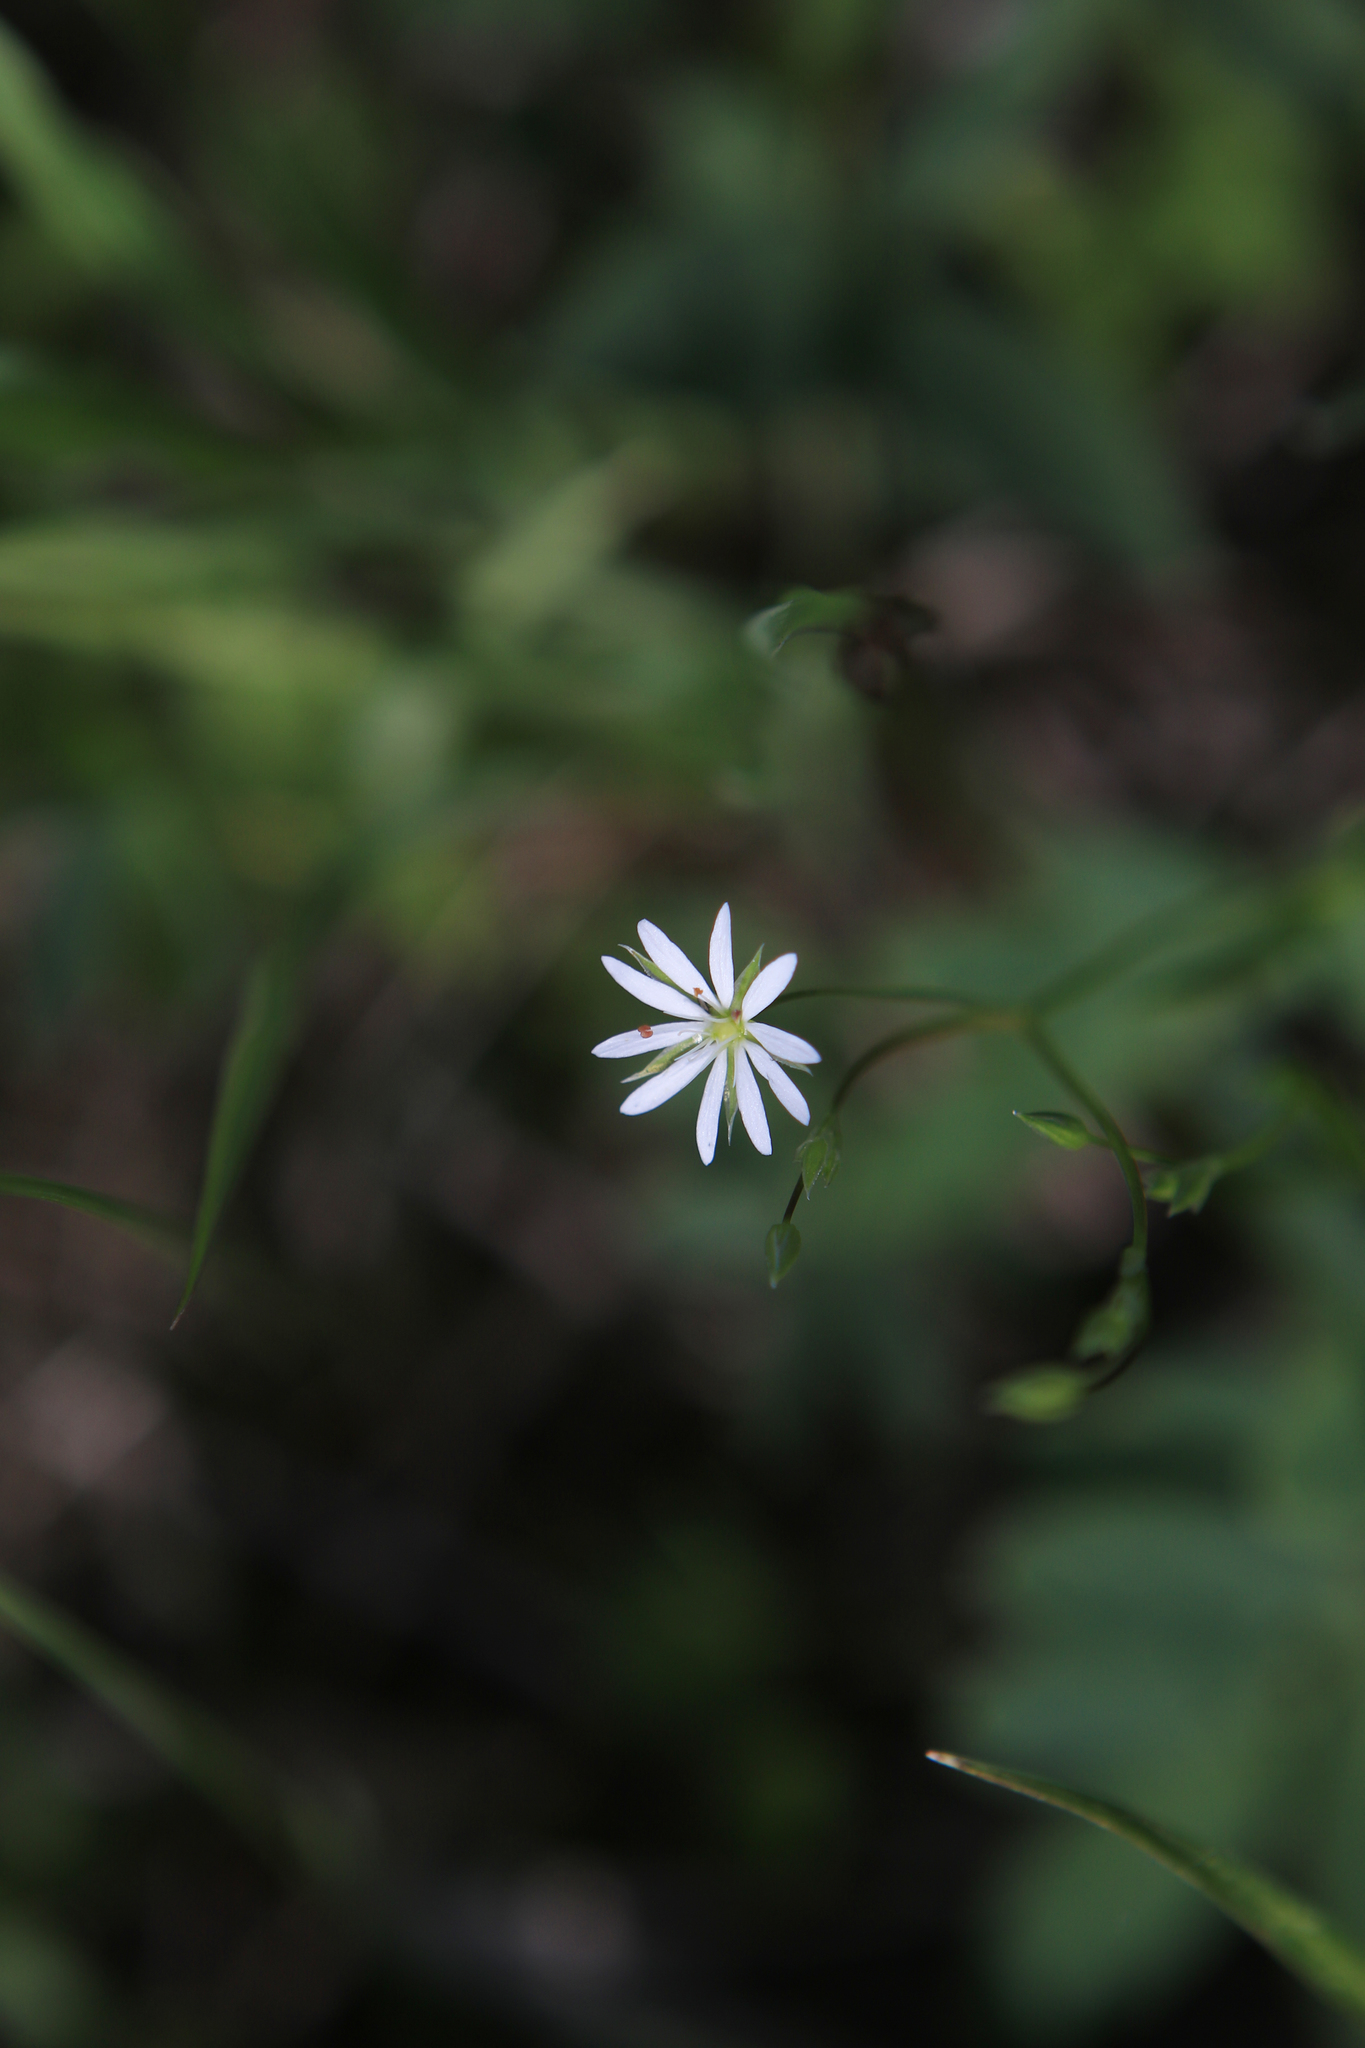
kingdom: Plantae
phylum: Tracheophyta
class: Magnoliopsida
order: Caryophyllales
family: Caryophyllaceae
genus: Stellaria
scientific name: Stellaria graminea
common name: Grass-like starwort
